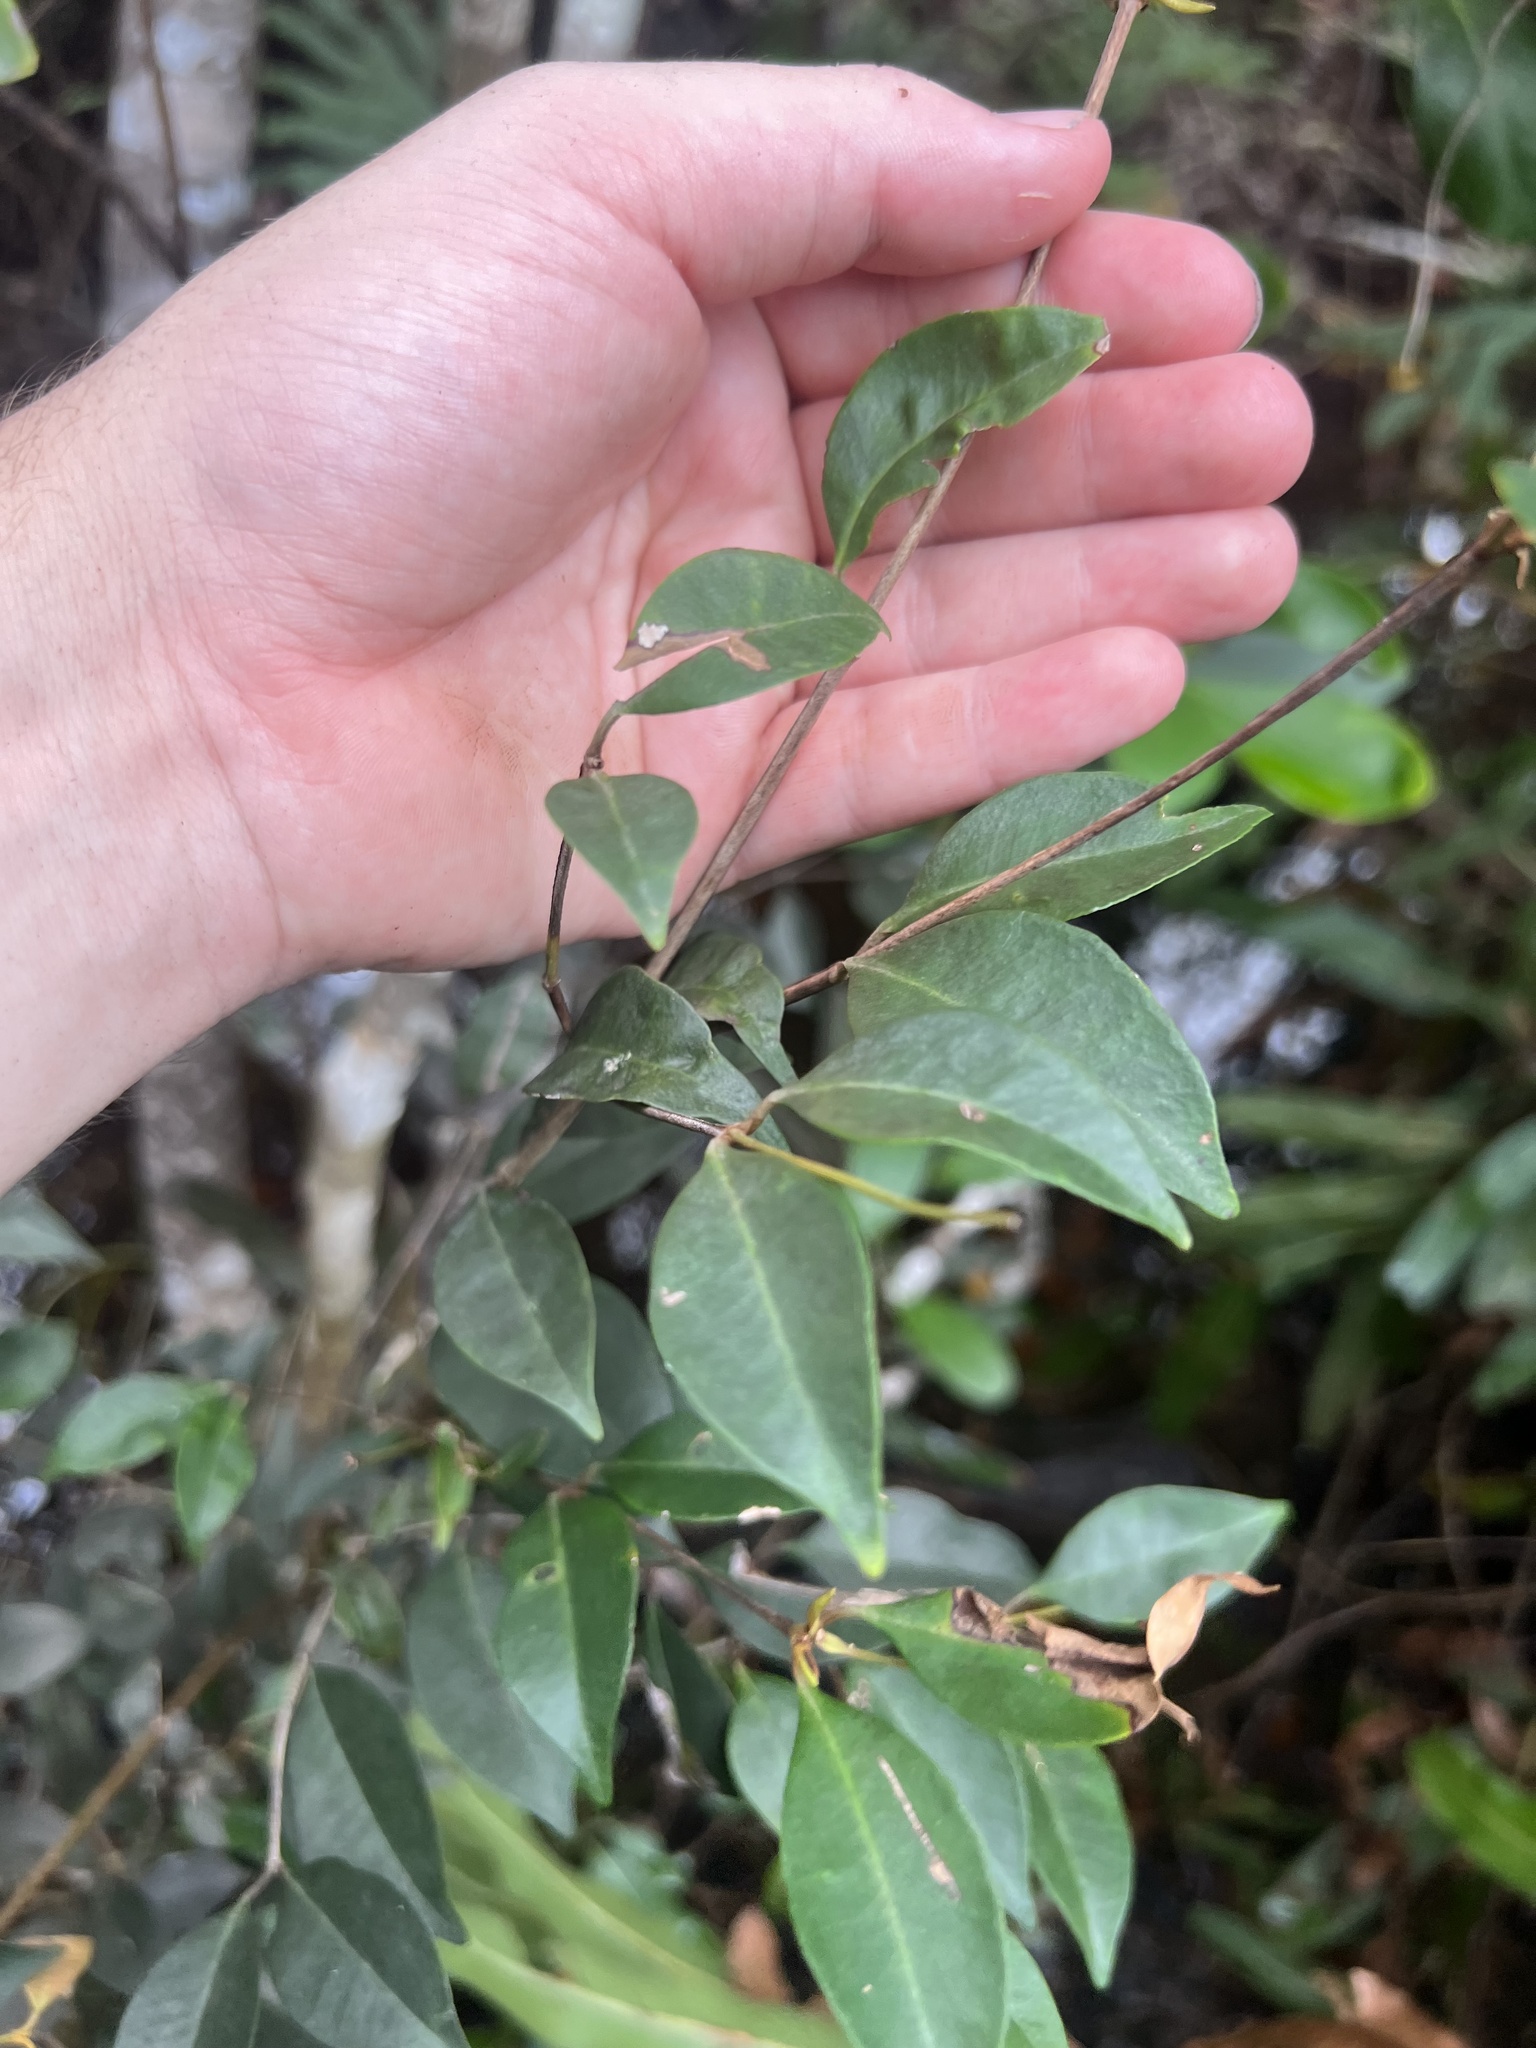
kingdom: Plantae
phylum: Tracheophyta
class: Magnoliopsida
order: Myrtales
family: Myrtaceae
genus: Myrcia
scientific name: Myrcia chytraculia
